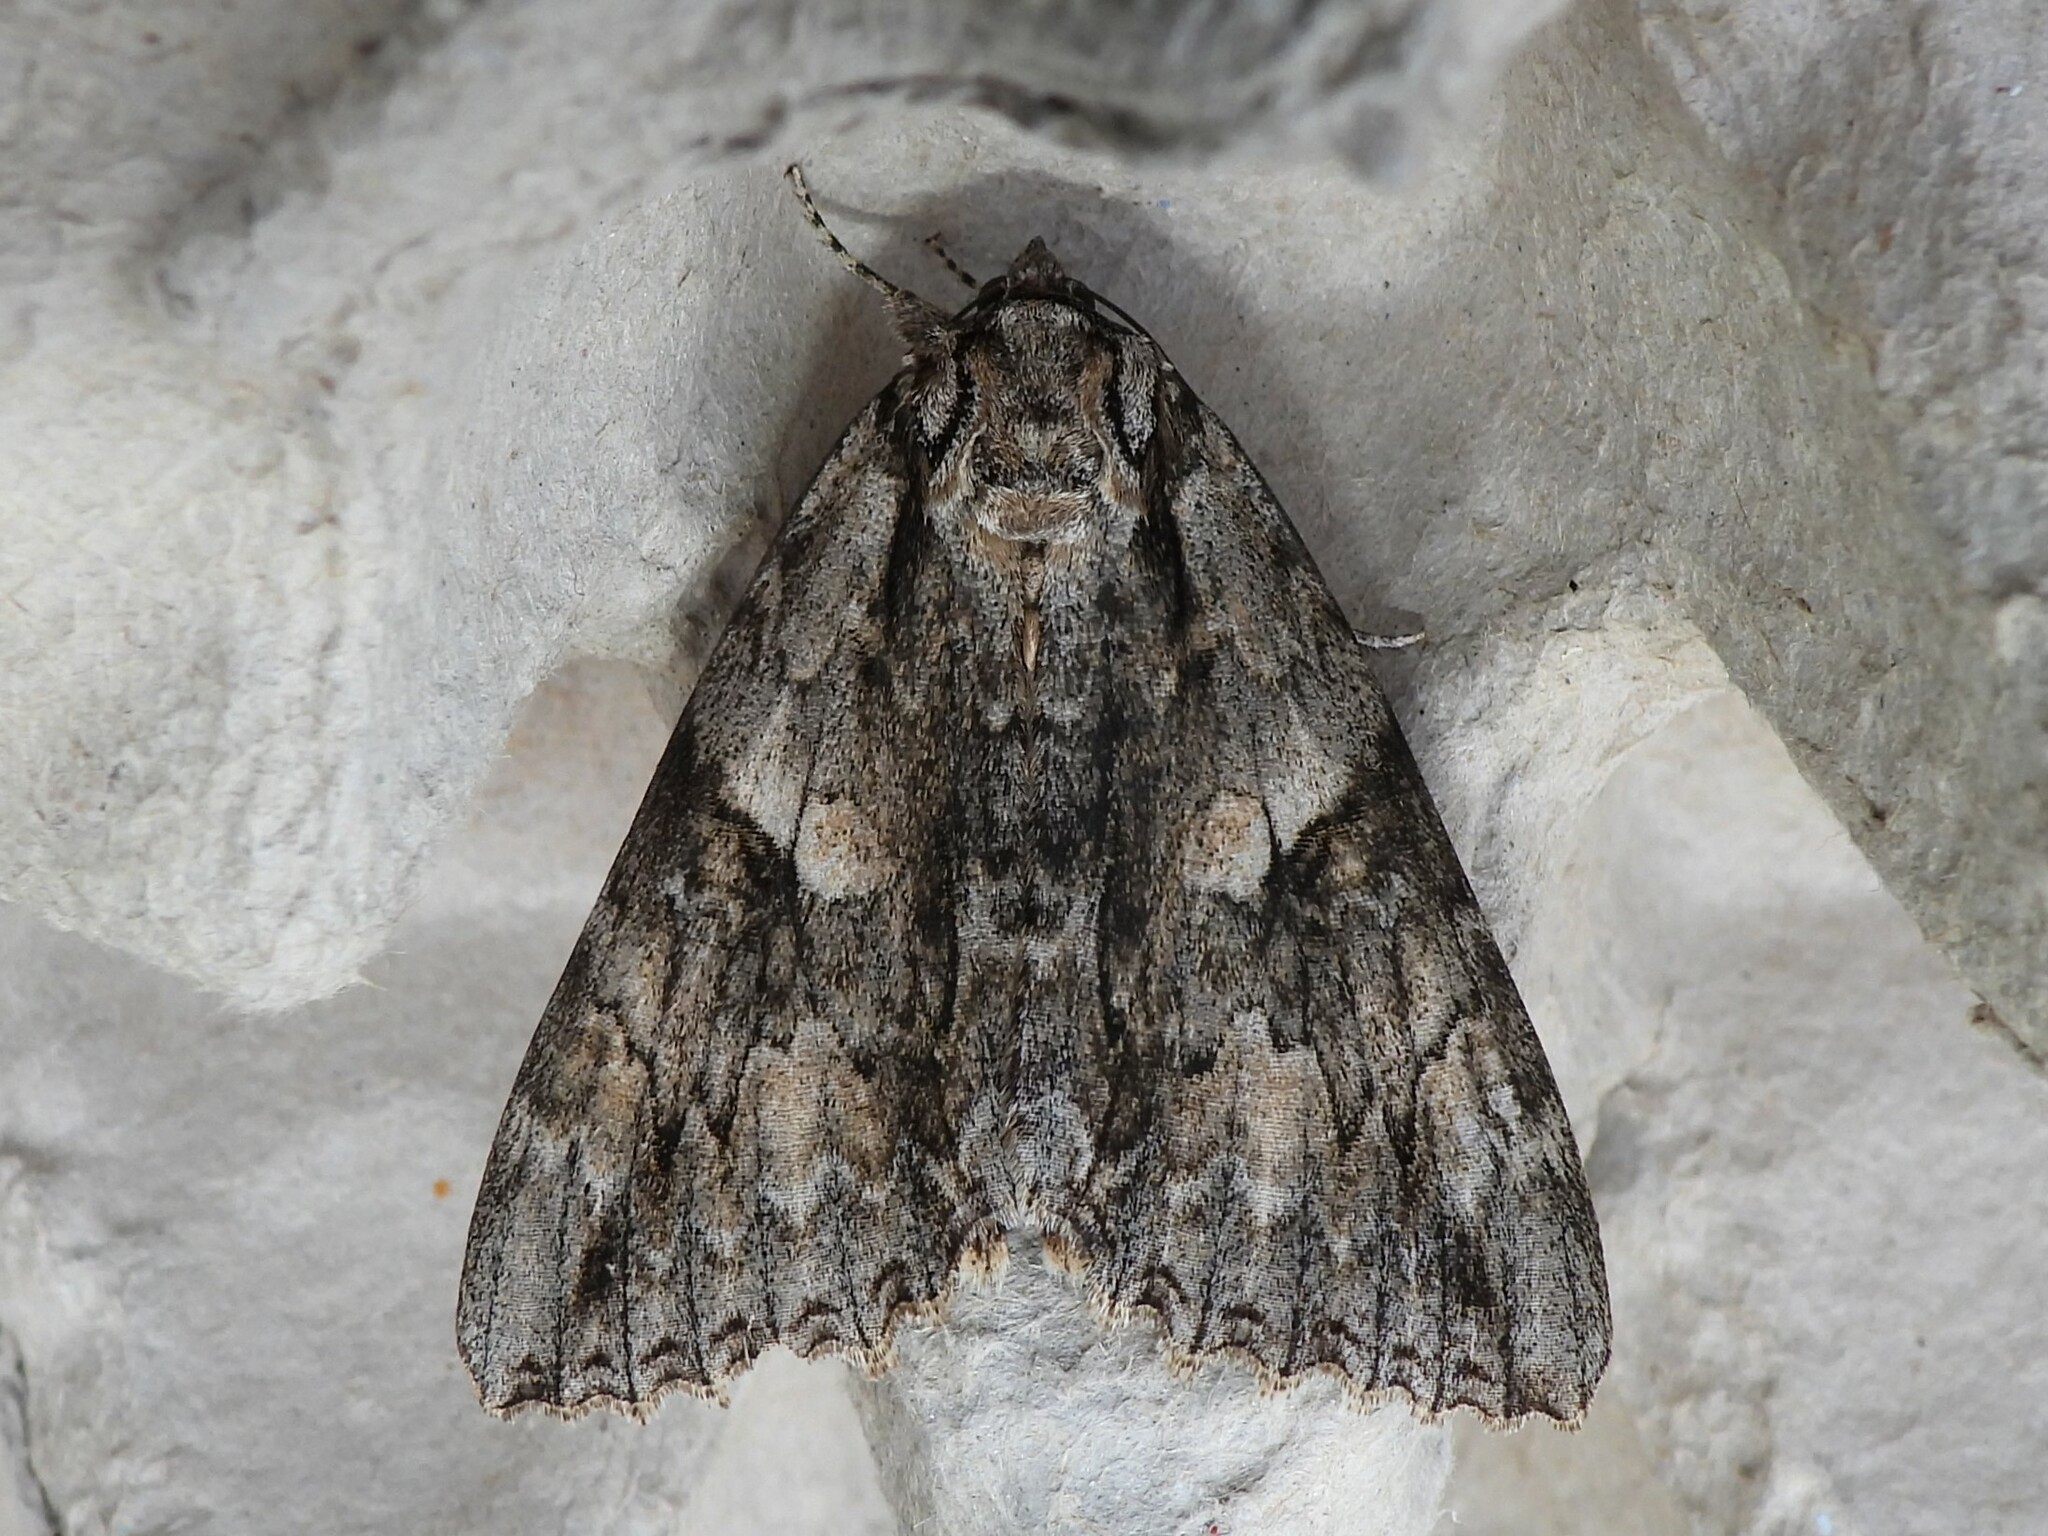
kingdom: Animalia
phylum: Arthropoda
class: Insecta
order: Lepidoptera
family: Erebidae
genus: Catocala
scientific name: Catocala parta
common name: Mother underwing
